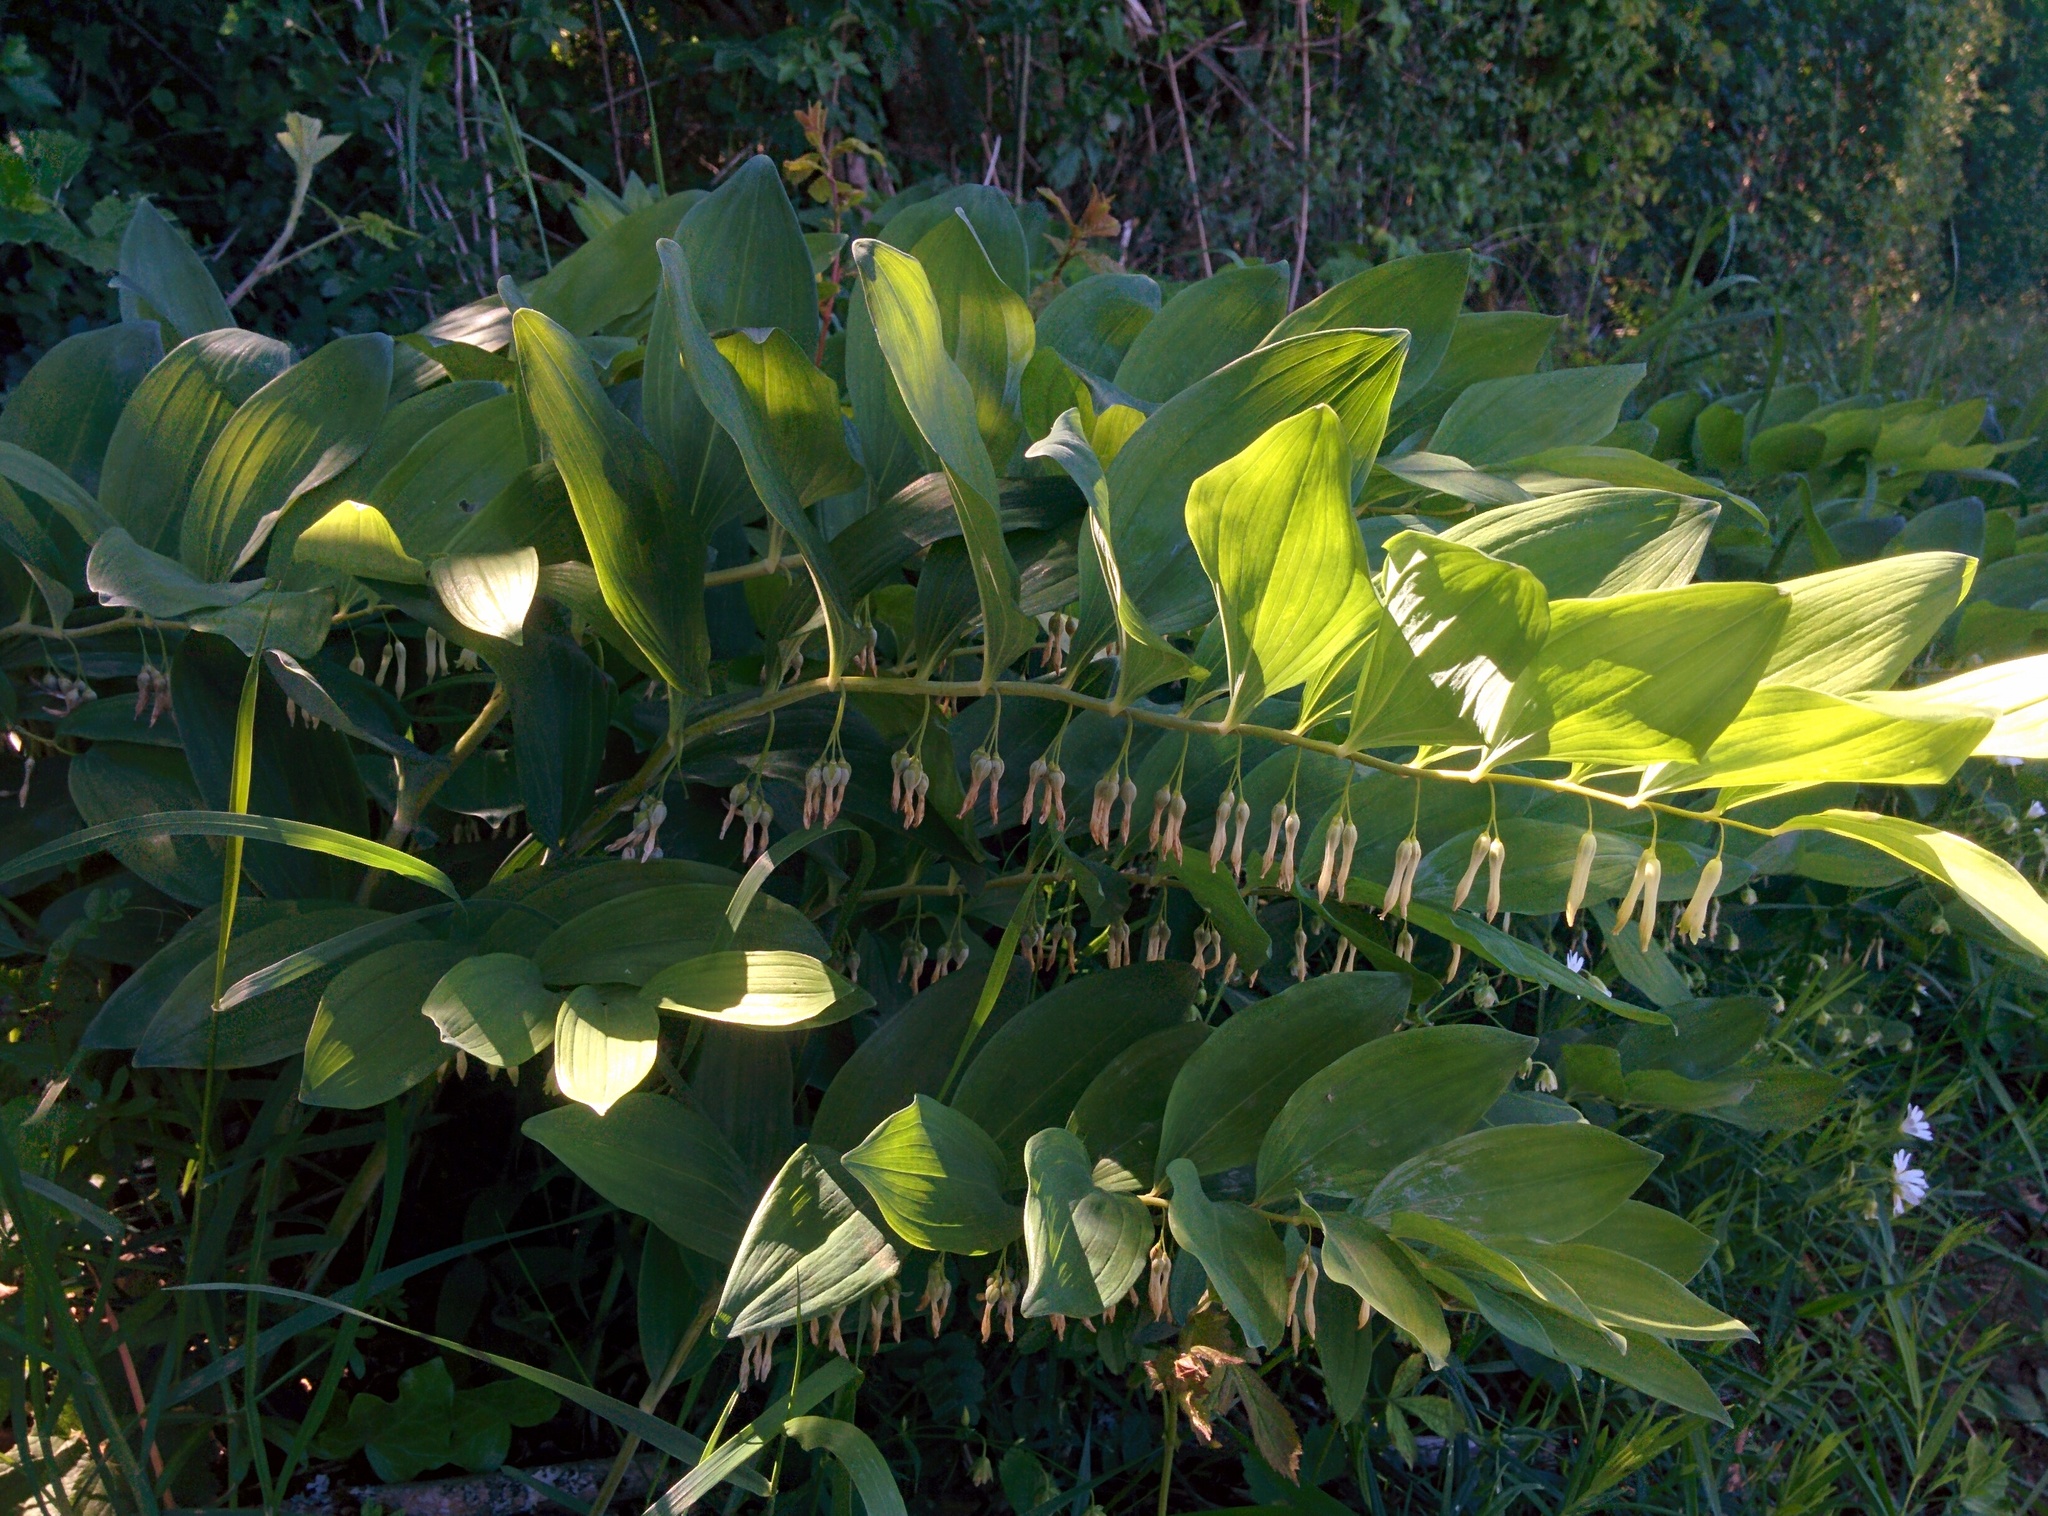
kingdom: Plantae
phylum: Tracheophyta
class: Liliopsida
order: Asparagales
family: Asparagaceae
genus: Polygonatum
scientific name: Polygonatum odoratum
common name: Angular solomon's-seal
